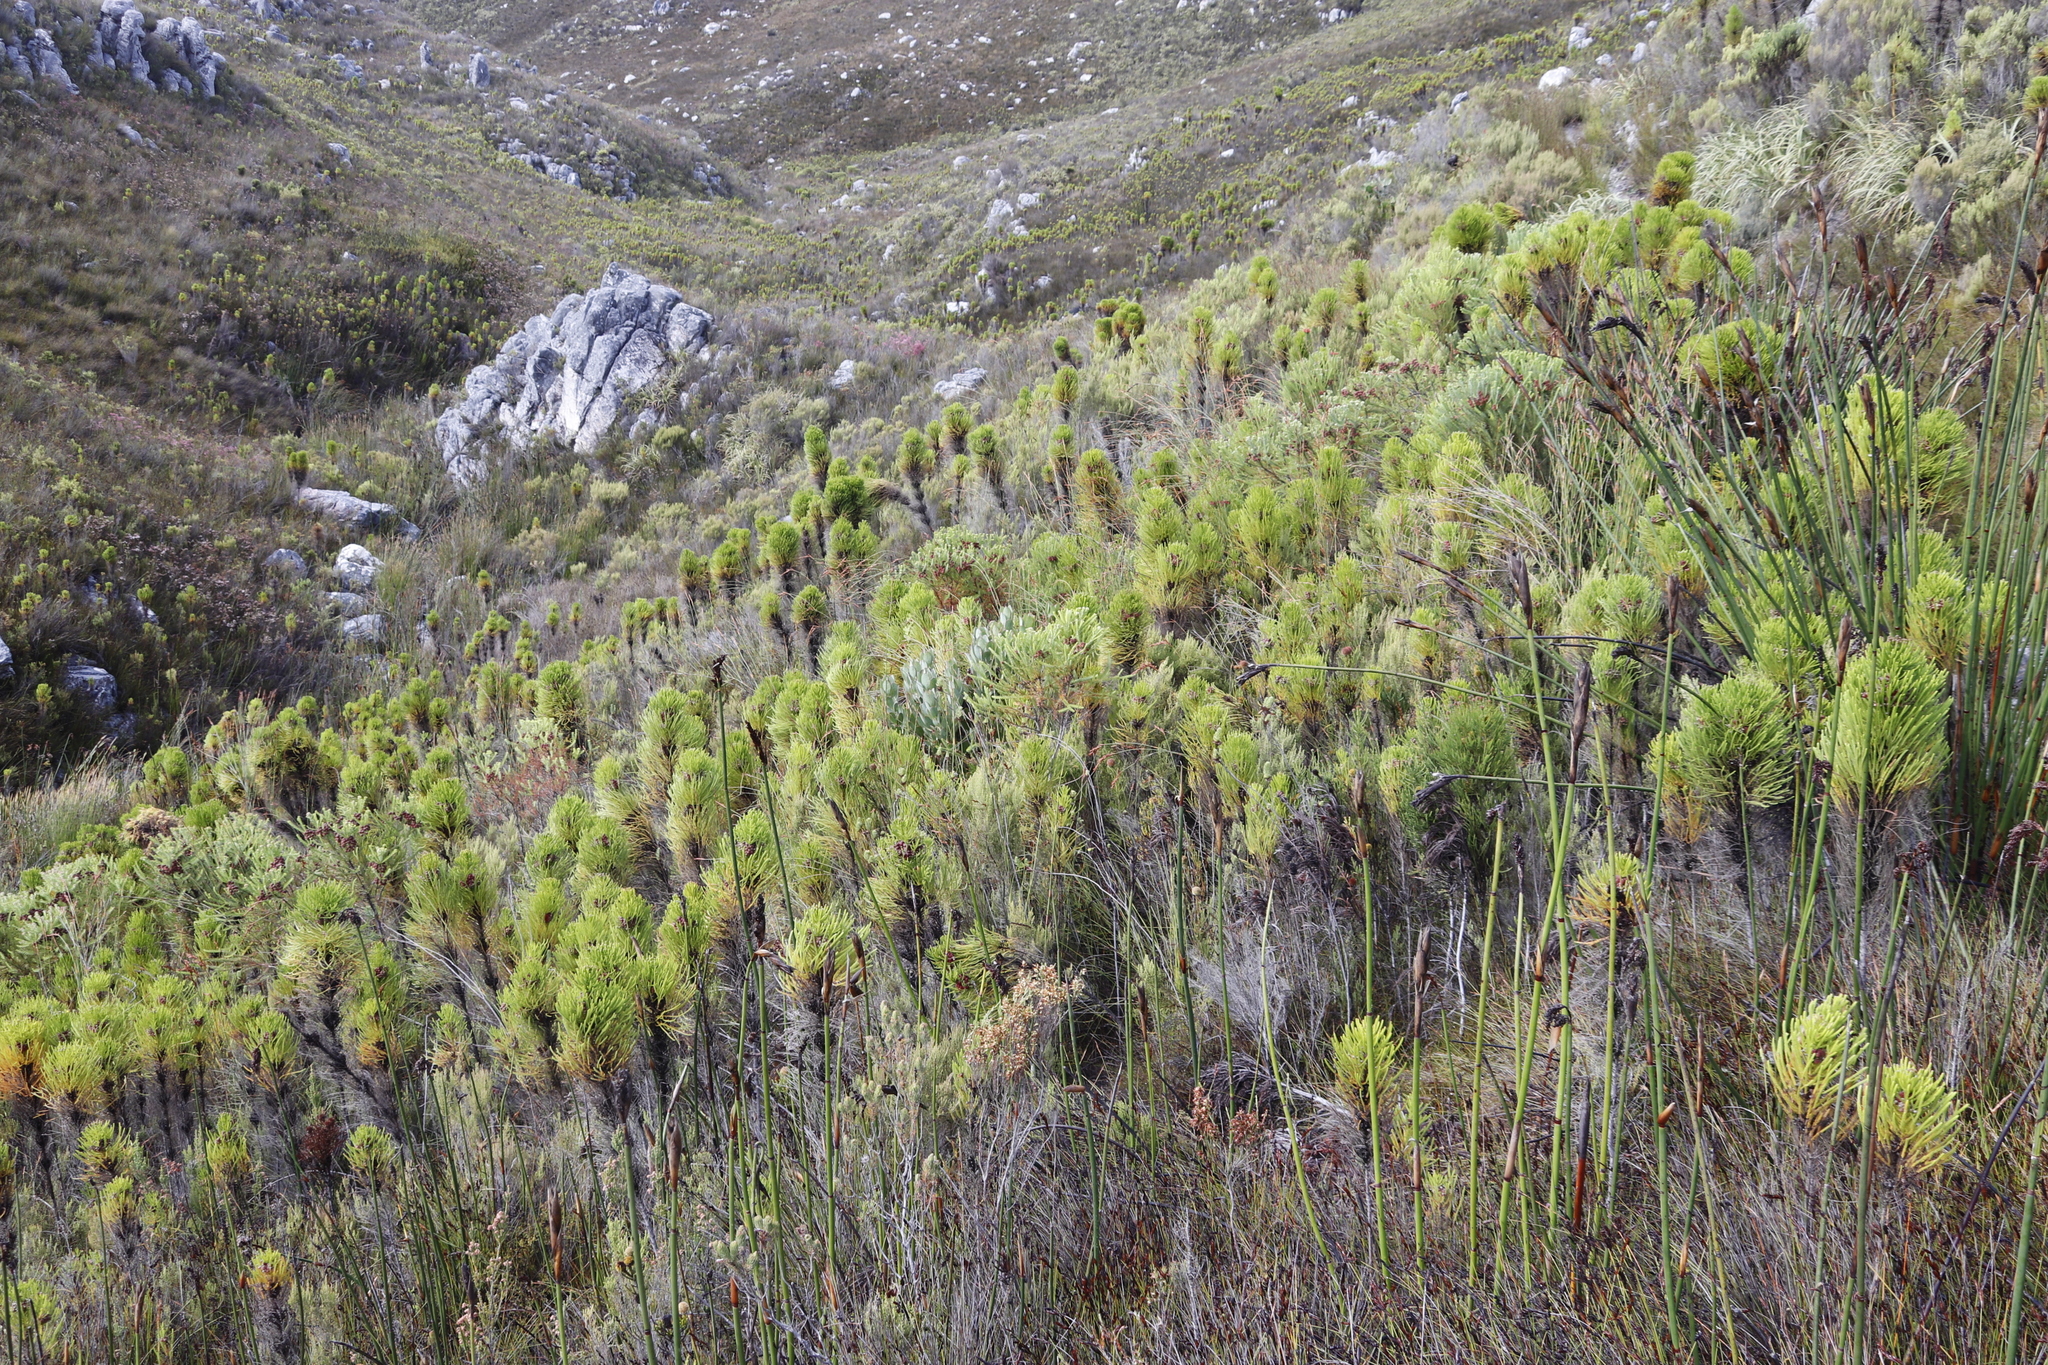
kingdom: Plantae
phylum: Tracheophyta
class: Magnoliopsida
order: Proteales
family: Proteaceae
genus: Protea
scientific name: Protea stokoei
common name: Pink sugarbush
